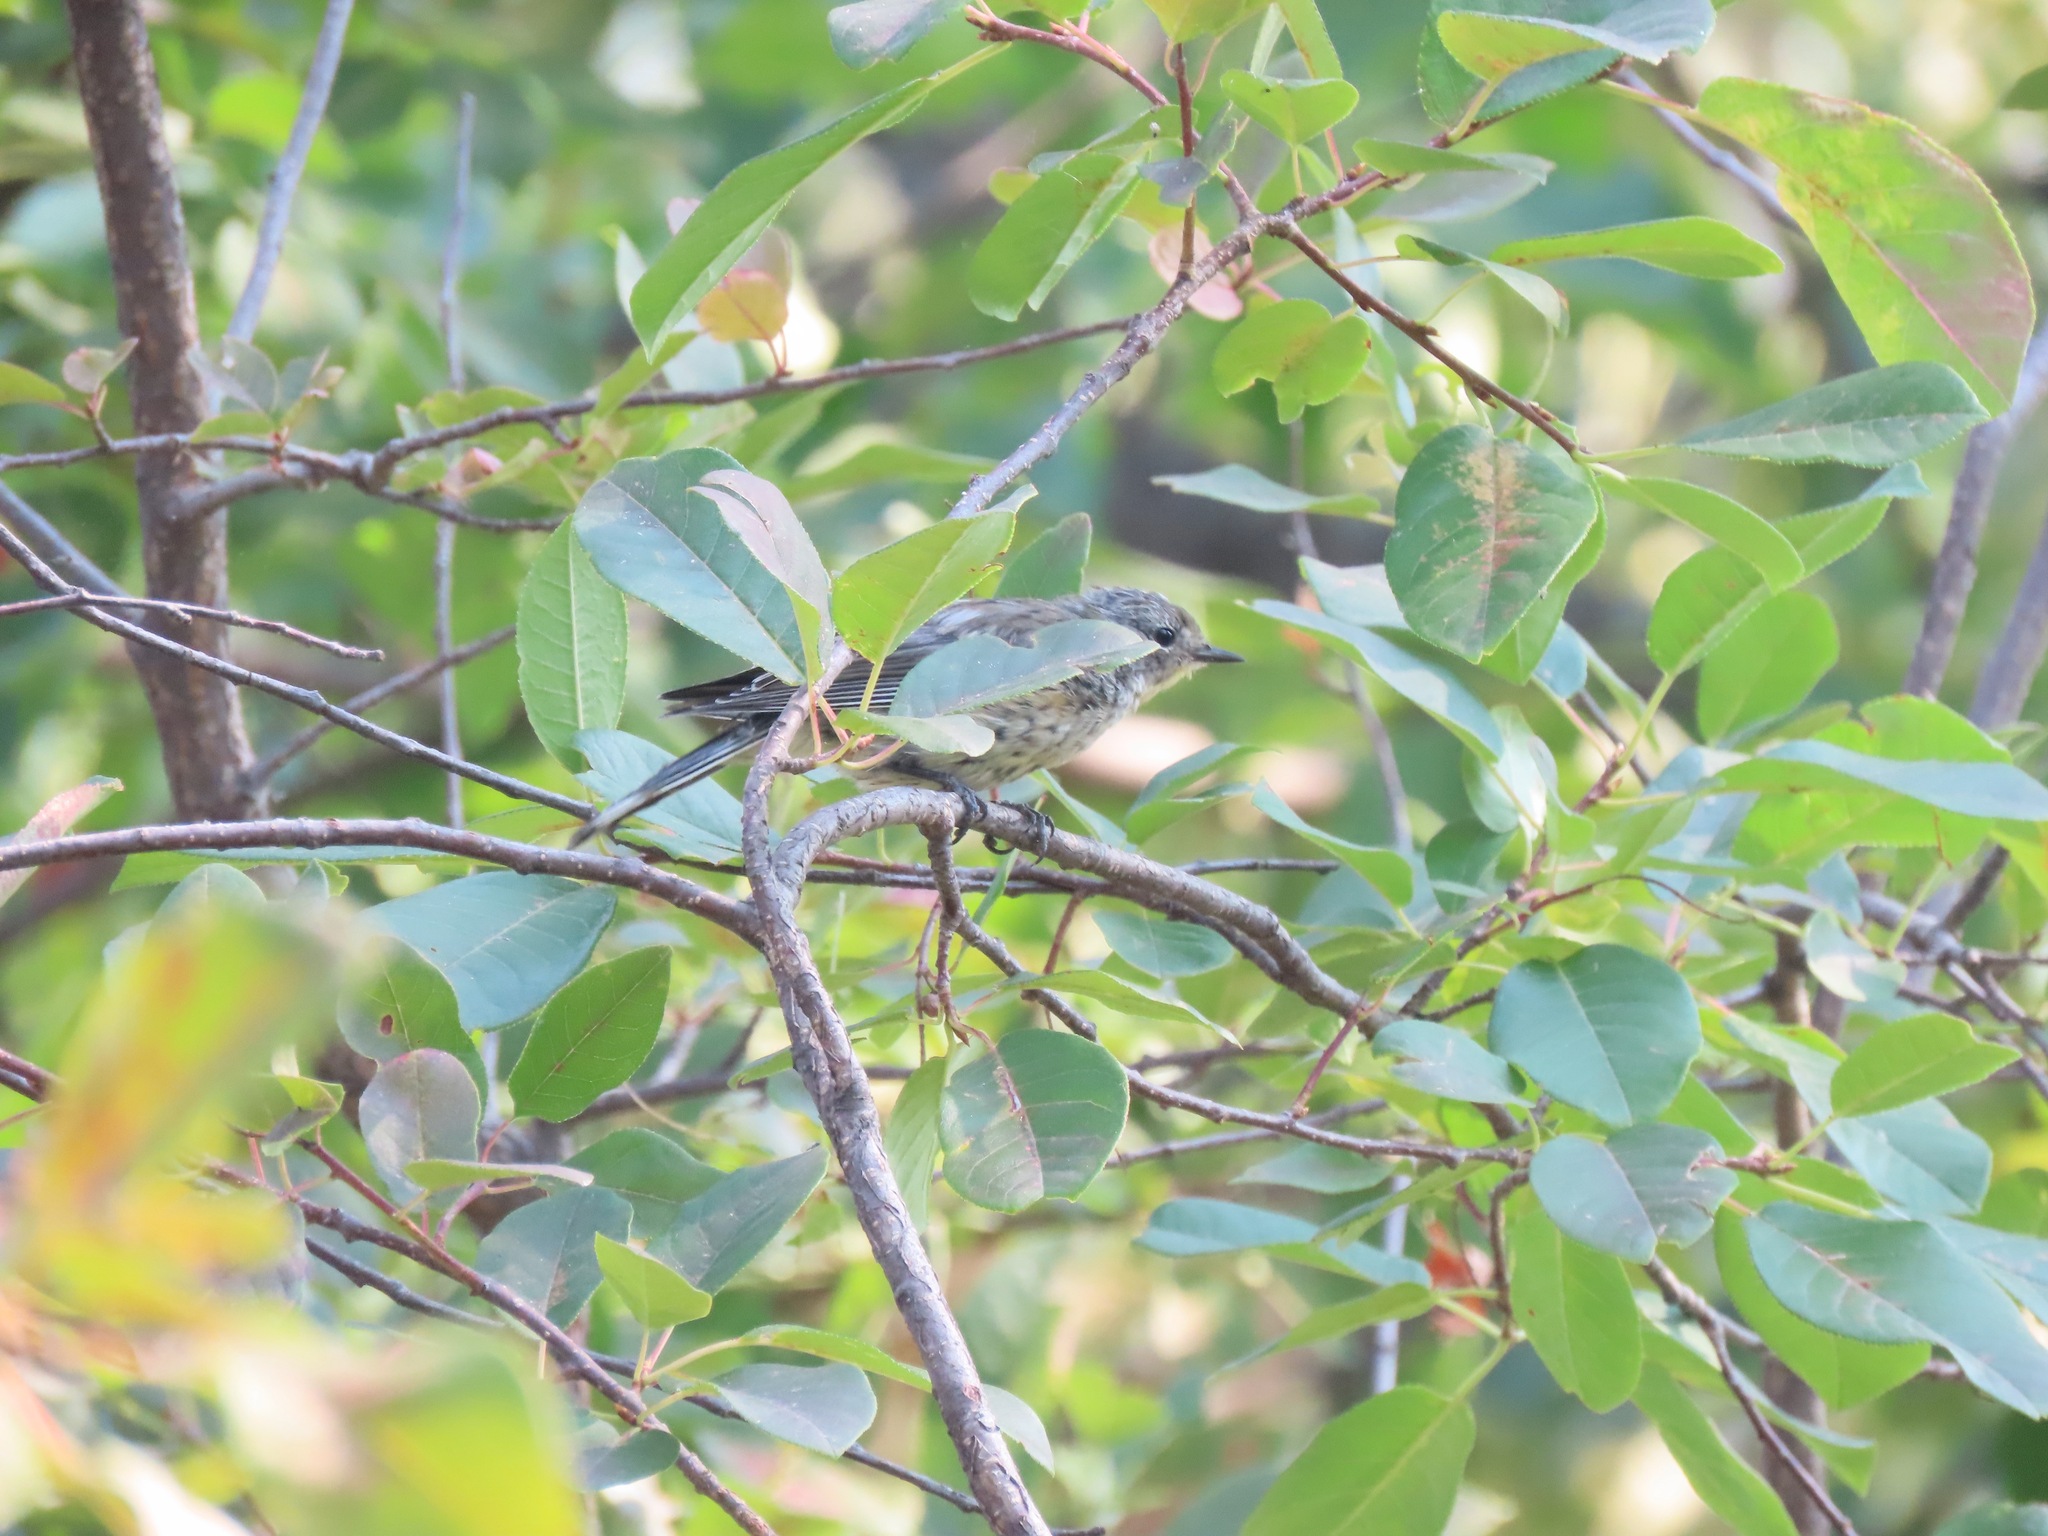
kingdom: Animalia
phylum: Chordata
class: Aves
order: Passeriformes
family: Parulidae
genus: Setophaga
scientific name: Setophaga coronata
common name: Myrtle warbler
